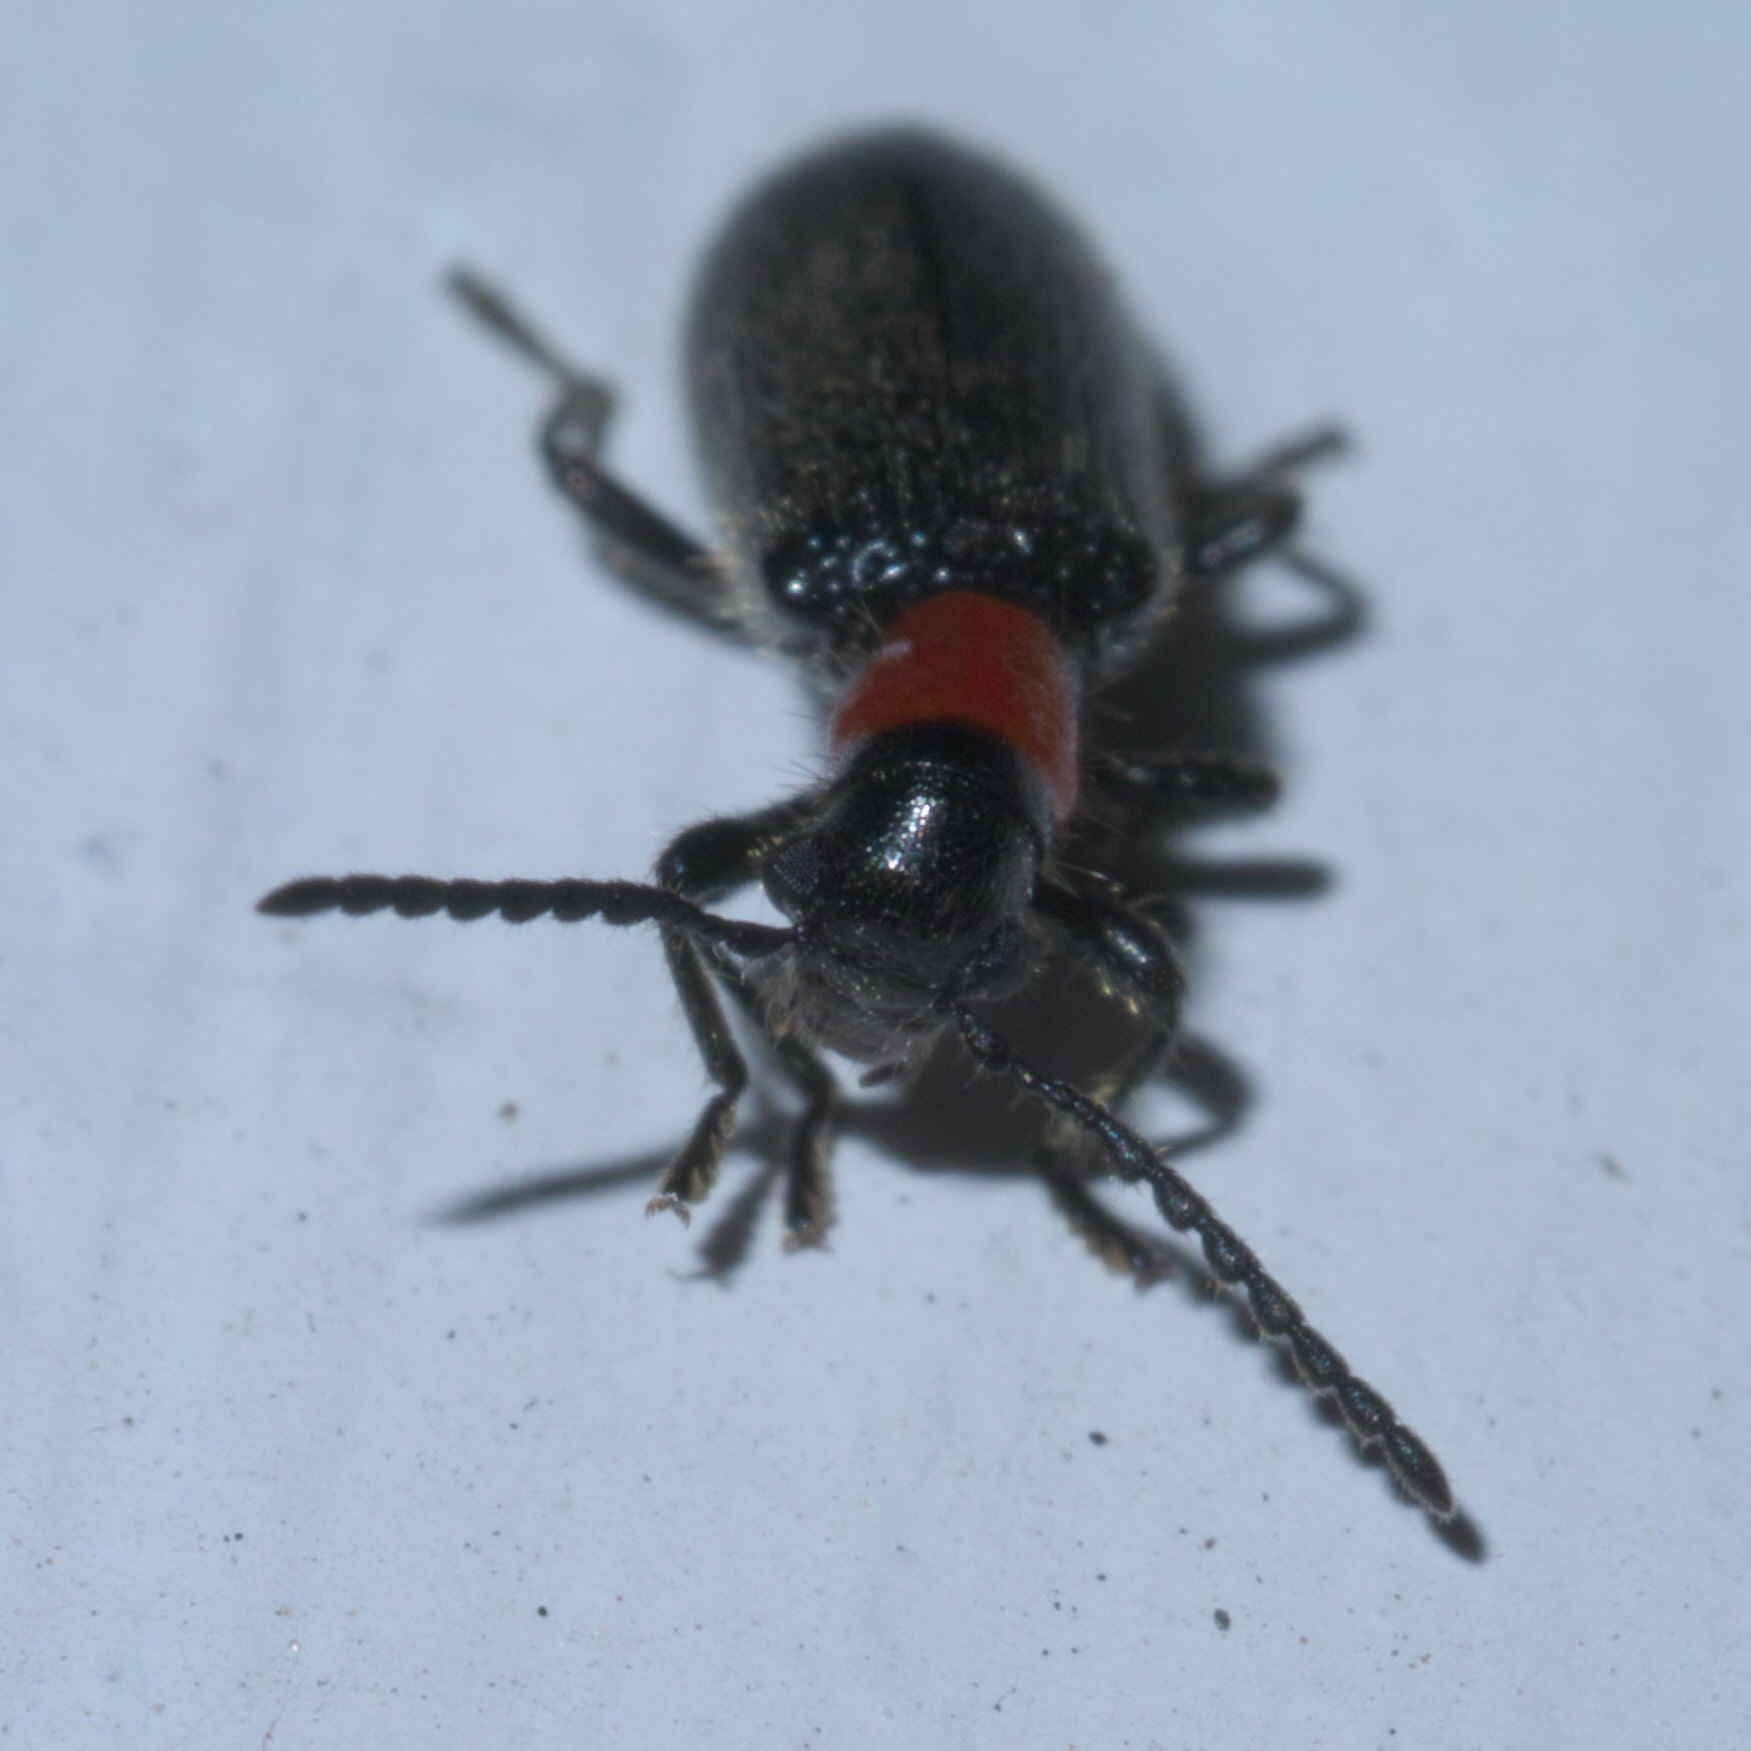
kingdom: Animalia
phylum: Arthropoda
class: Insecta
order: Coleoptera
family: Cleridae
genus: Cymatoderella
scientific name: Cymatoderella collaris
